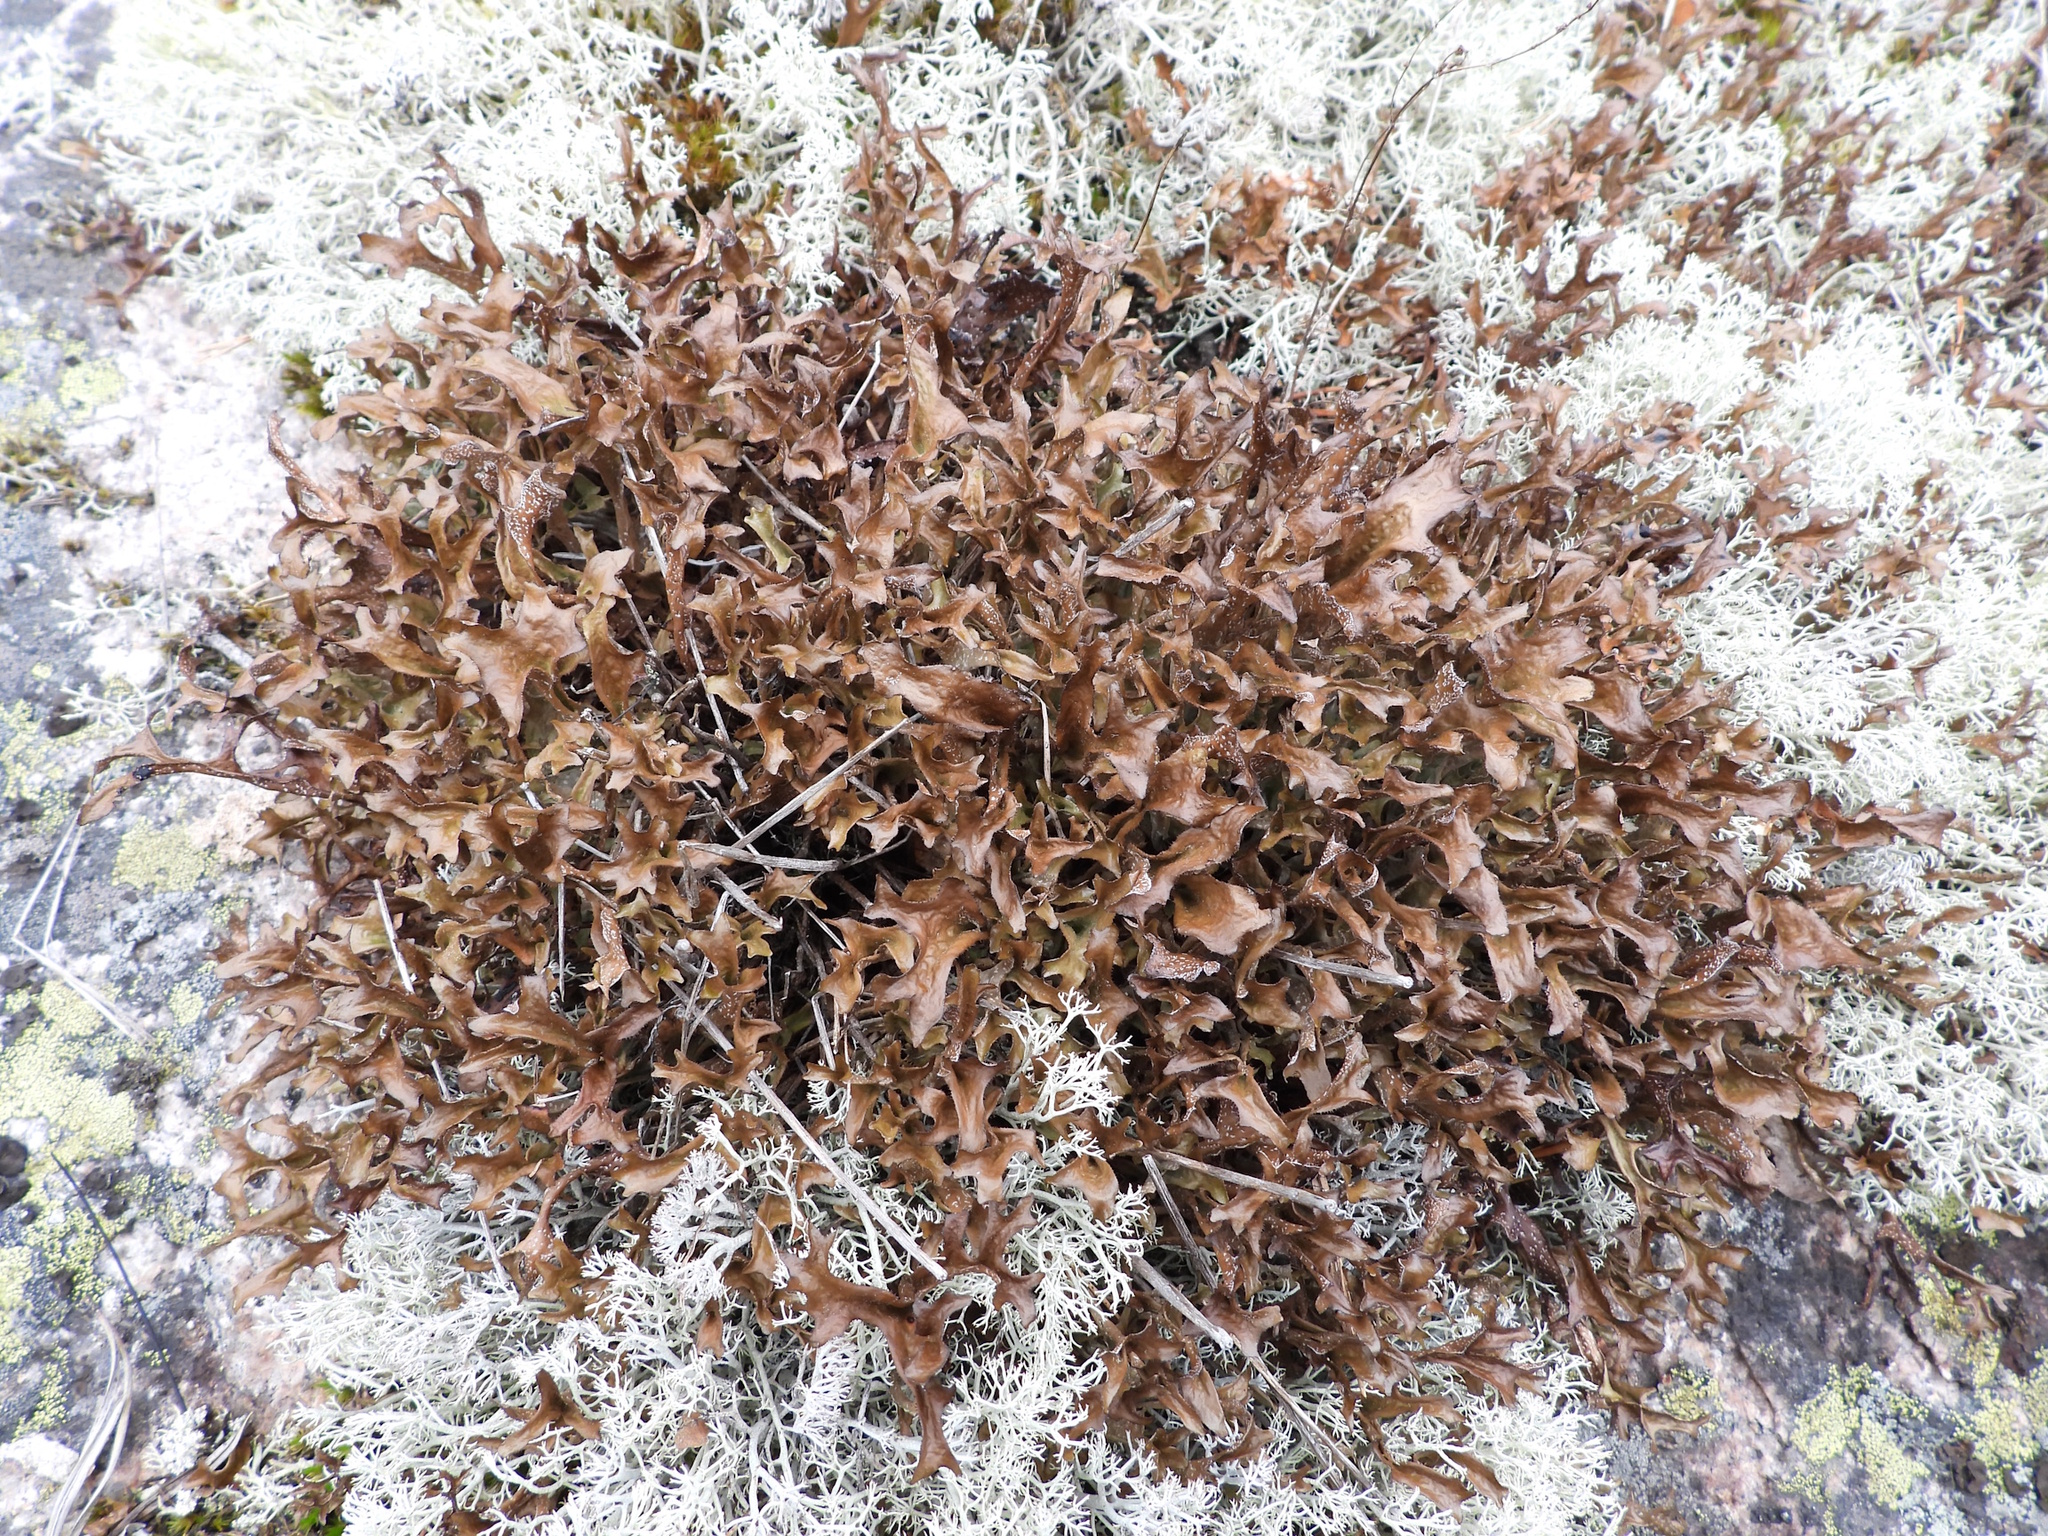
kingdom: Fungi
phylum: Ascomycota
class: Lecanoromycetes
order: Lecanorales
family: Parmeliaceae
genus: Cetraria
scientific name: Cetraria islandica
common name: Iceland lichen
